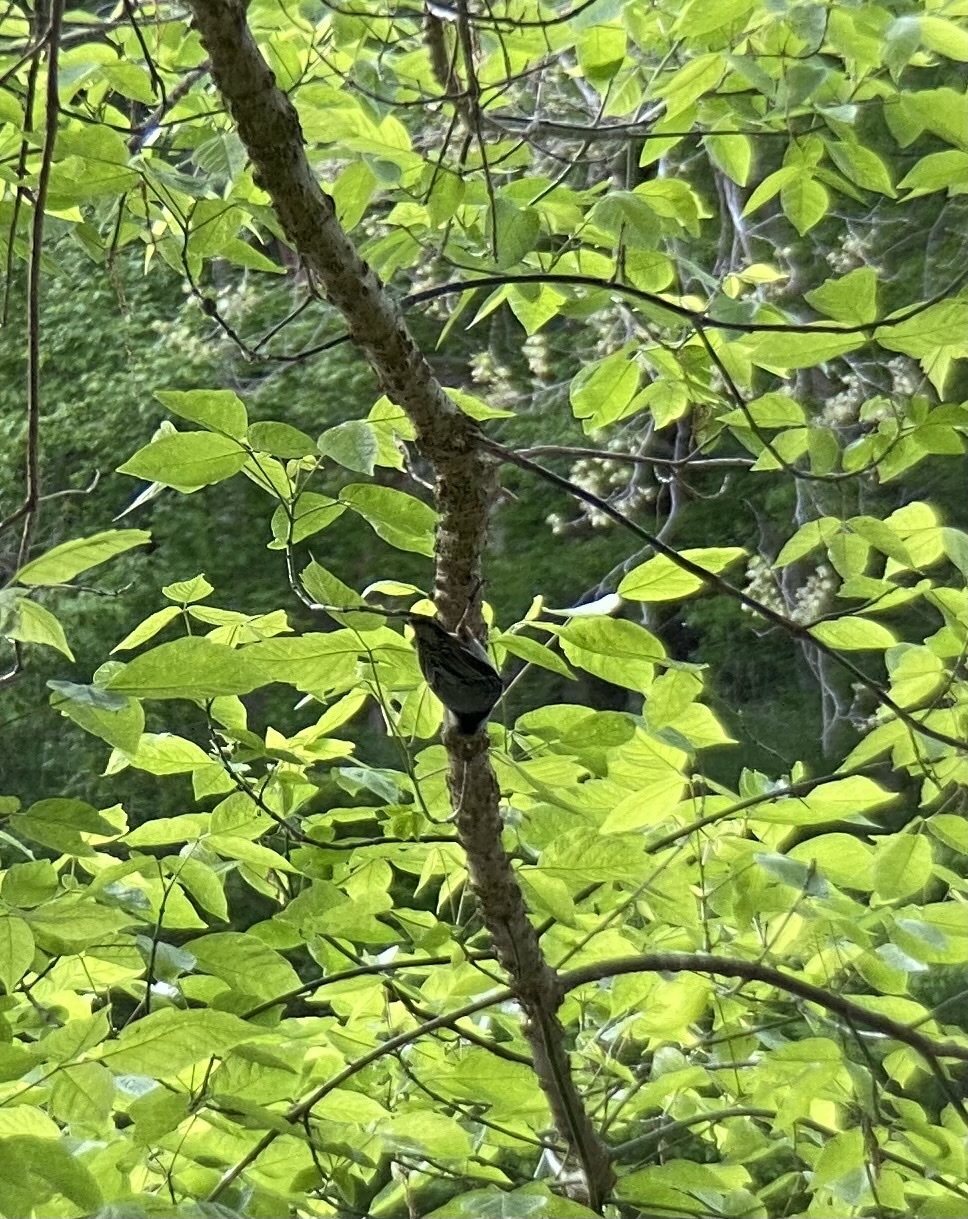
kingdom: Animalia
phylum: Chordata
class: Aves
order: Passeriformes
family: Sittidae
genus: Sitta
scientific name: Sitta carolinensis
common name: White-breasted nuthatch
